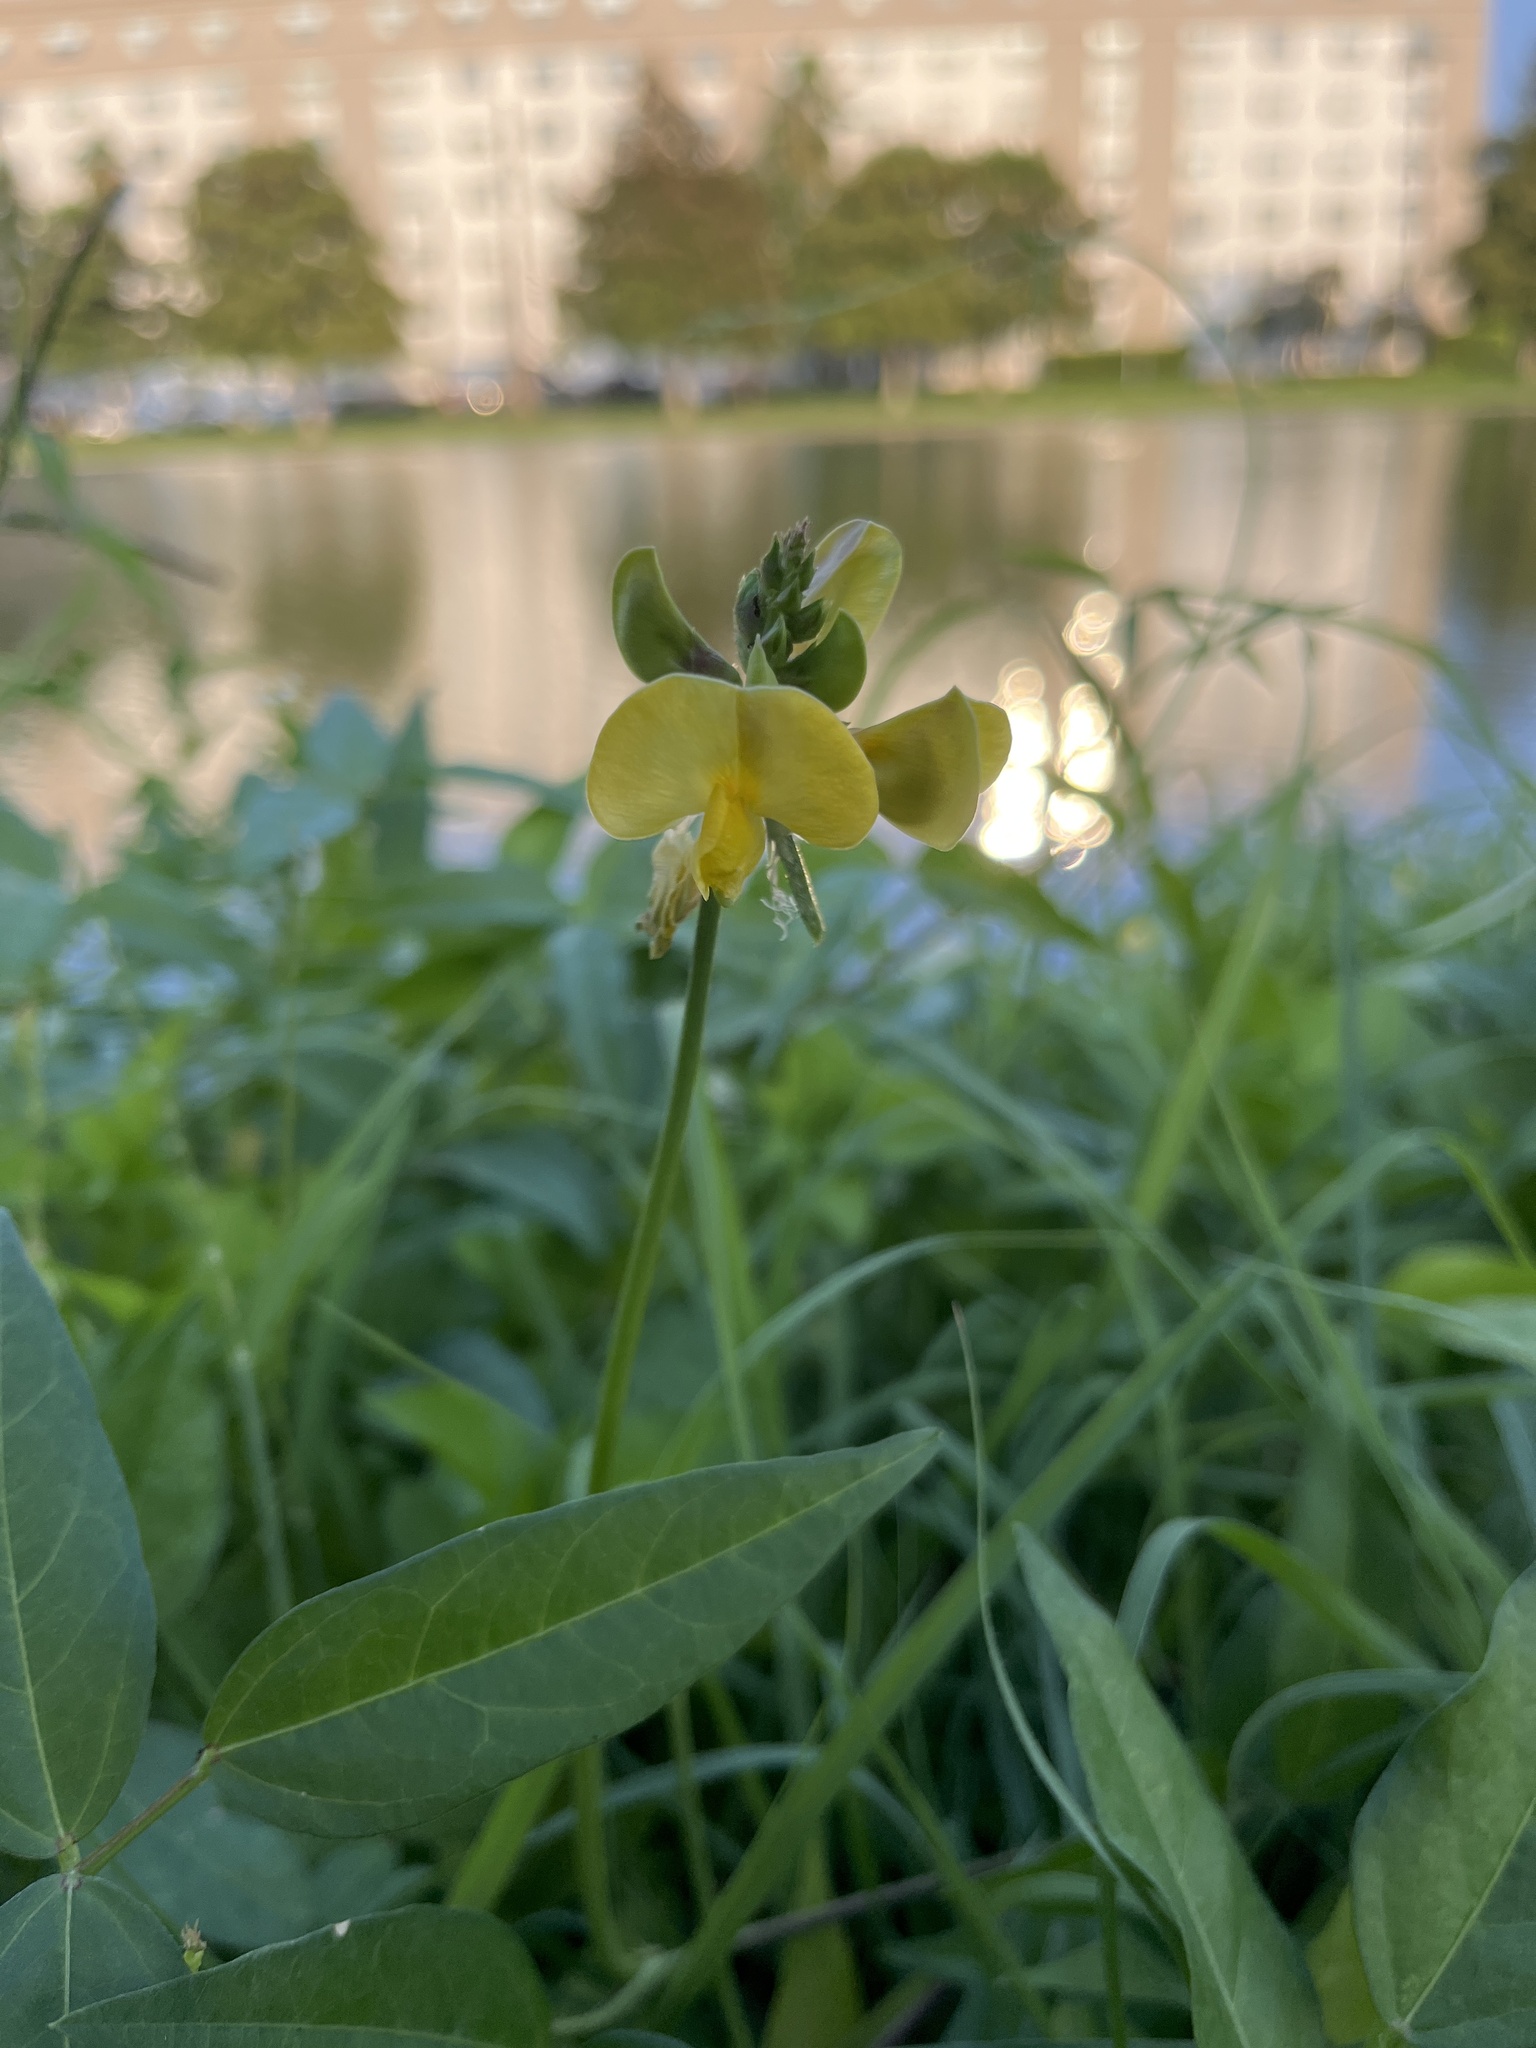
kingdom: Plantae
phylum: Tracheophyta
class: Magnoliopsida
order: Fabales
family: Fabaceae
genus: Vigna
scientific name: Vigna luteola
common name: Hairypod cowpea
